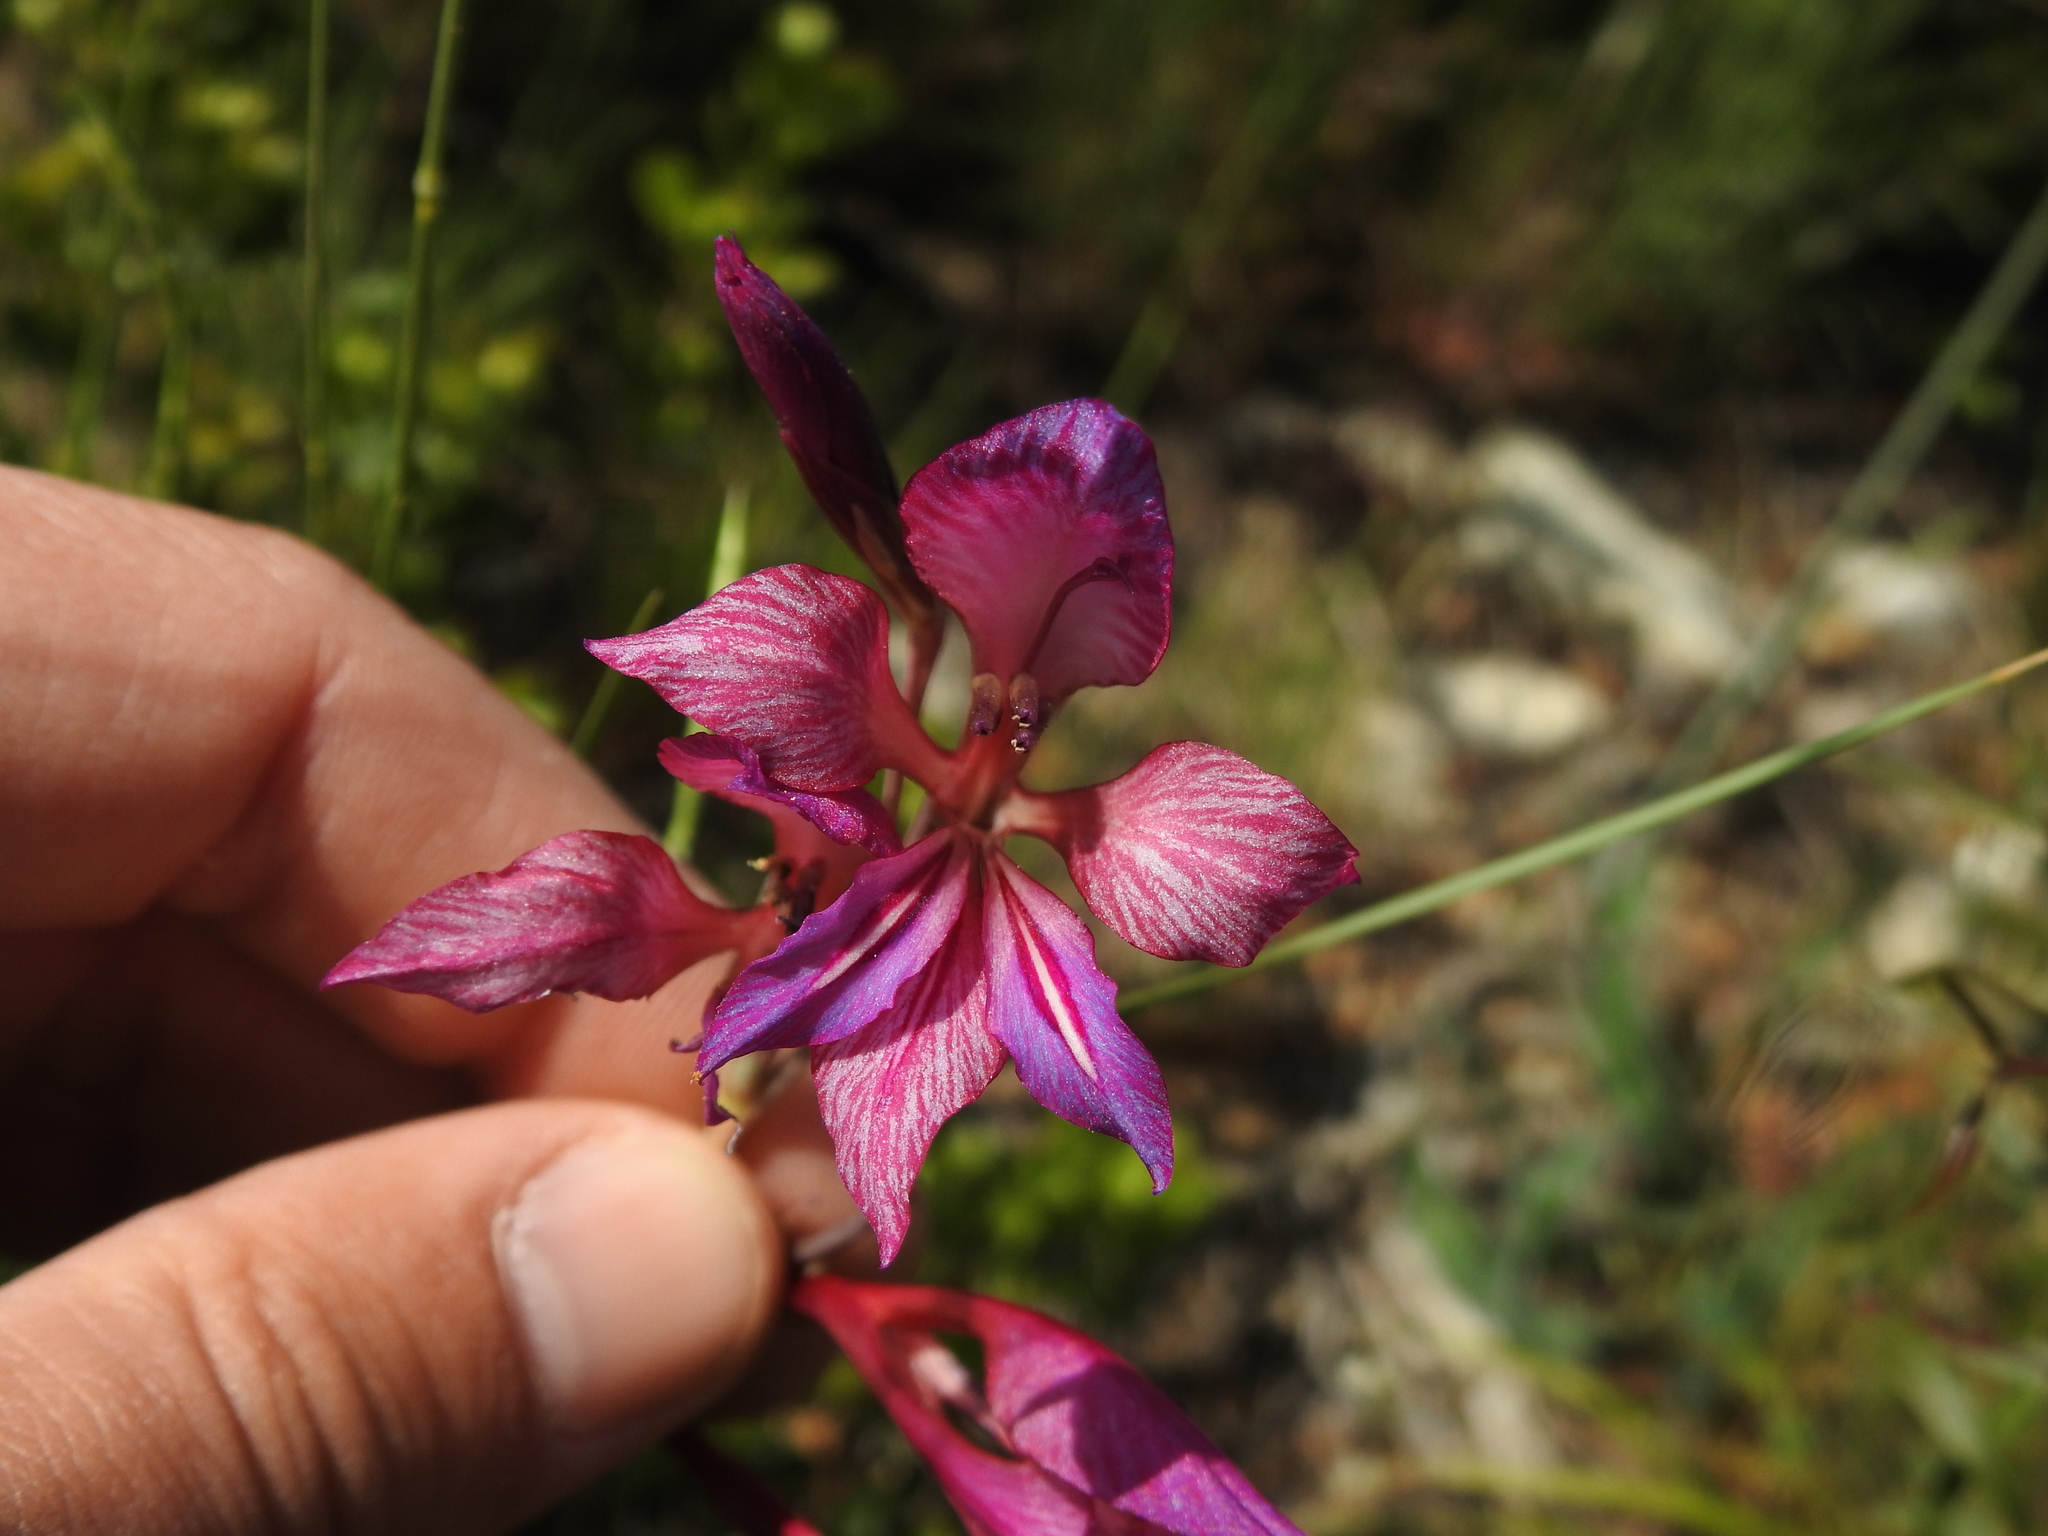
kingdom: Plantae
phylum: Tracheophyta
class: Liliopsida
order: Asparagales
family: Iridaceae
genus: Gladiolus
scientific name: Gladiolus dubius
